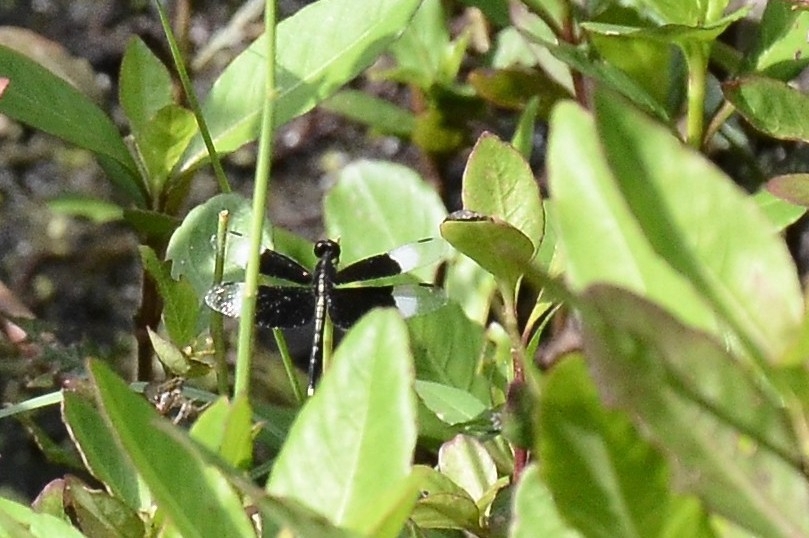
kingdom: Animalia
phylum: Arthropoda
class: Insecta
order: Odonata
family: Libellulidae
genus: Neurothemis
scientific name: Neurothemis tullia
